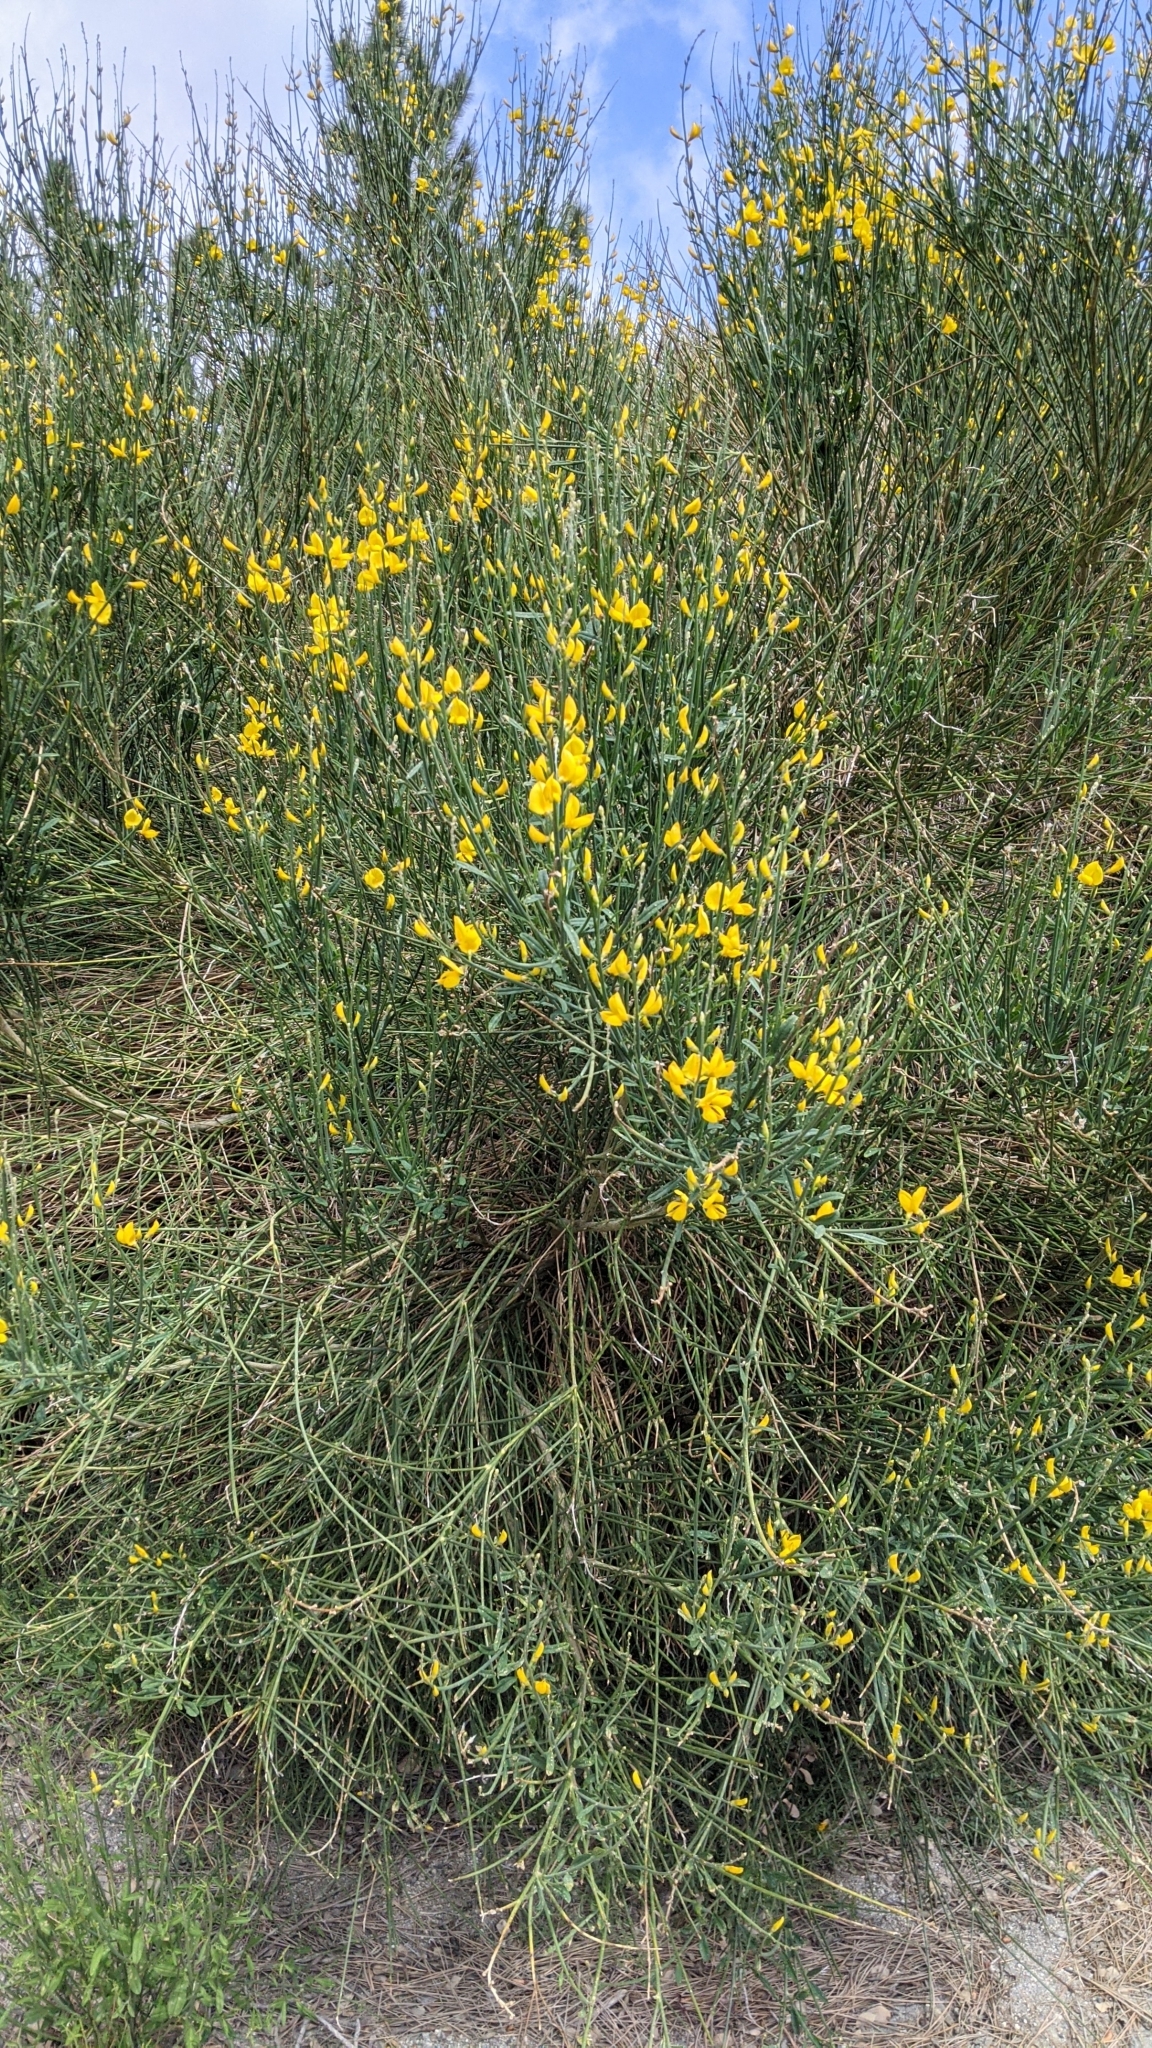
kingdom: Plantae
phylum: Tracheophyta
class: Magnoliopsida
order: Fabales
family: Fabaceae
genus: Spartium
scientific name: Spartium junceum
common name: Spanish broom
